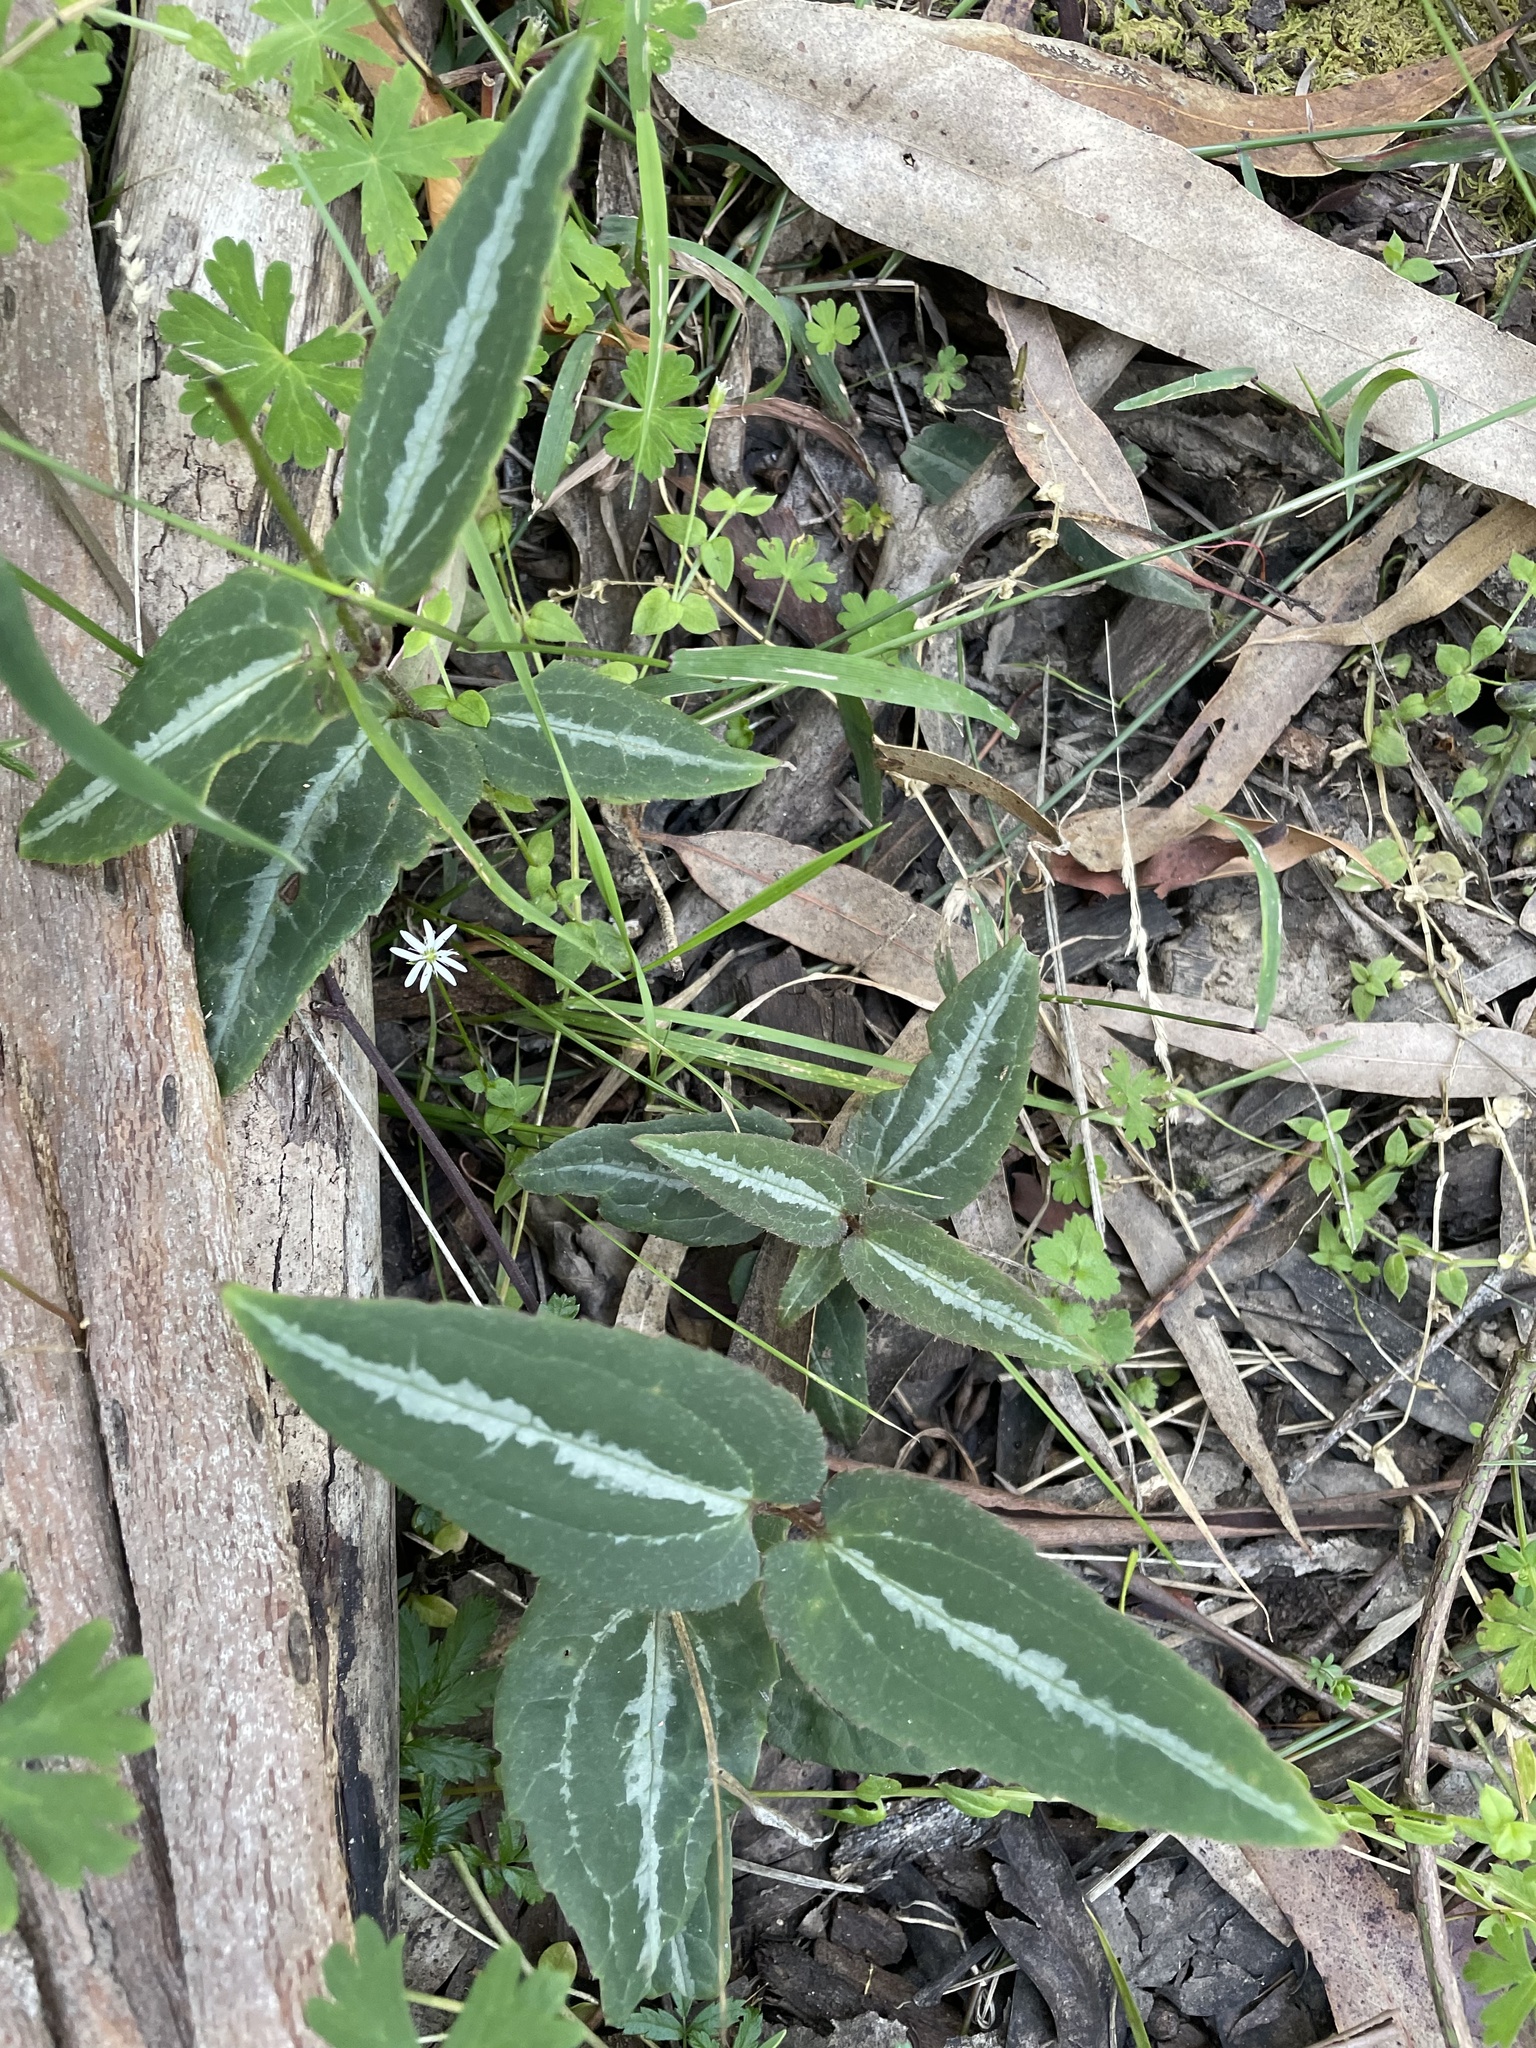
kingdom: Plantae
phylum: Tracheophyta
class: Magnoliopsida
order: Ranunculales
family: Ranunculaceae
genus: Clematis
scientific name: Clematis aristata
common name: Mountain clematis
